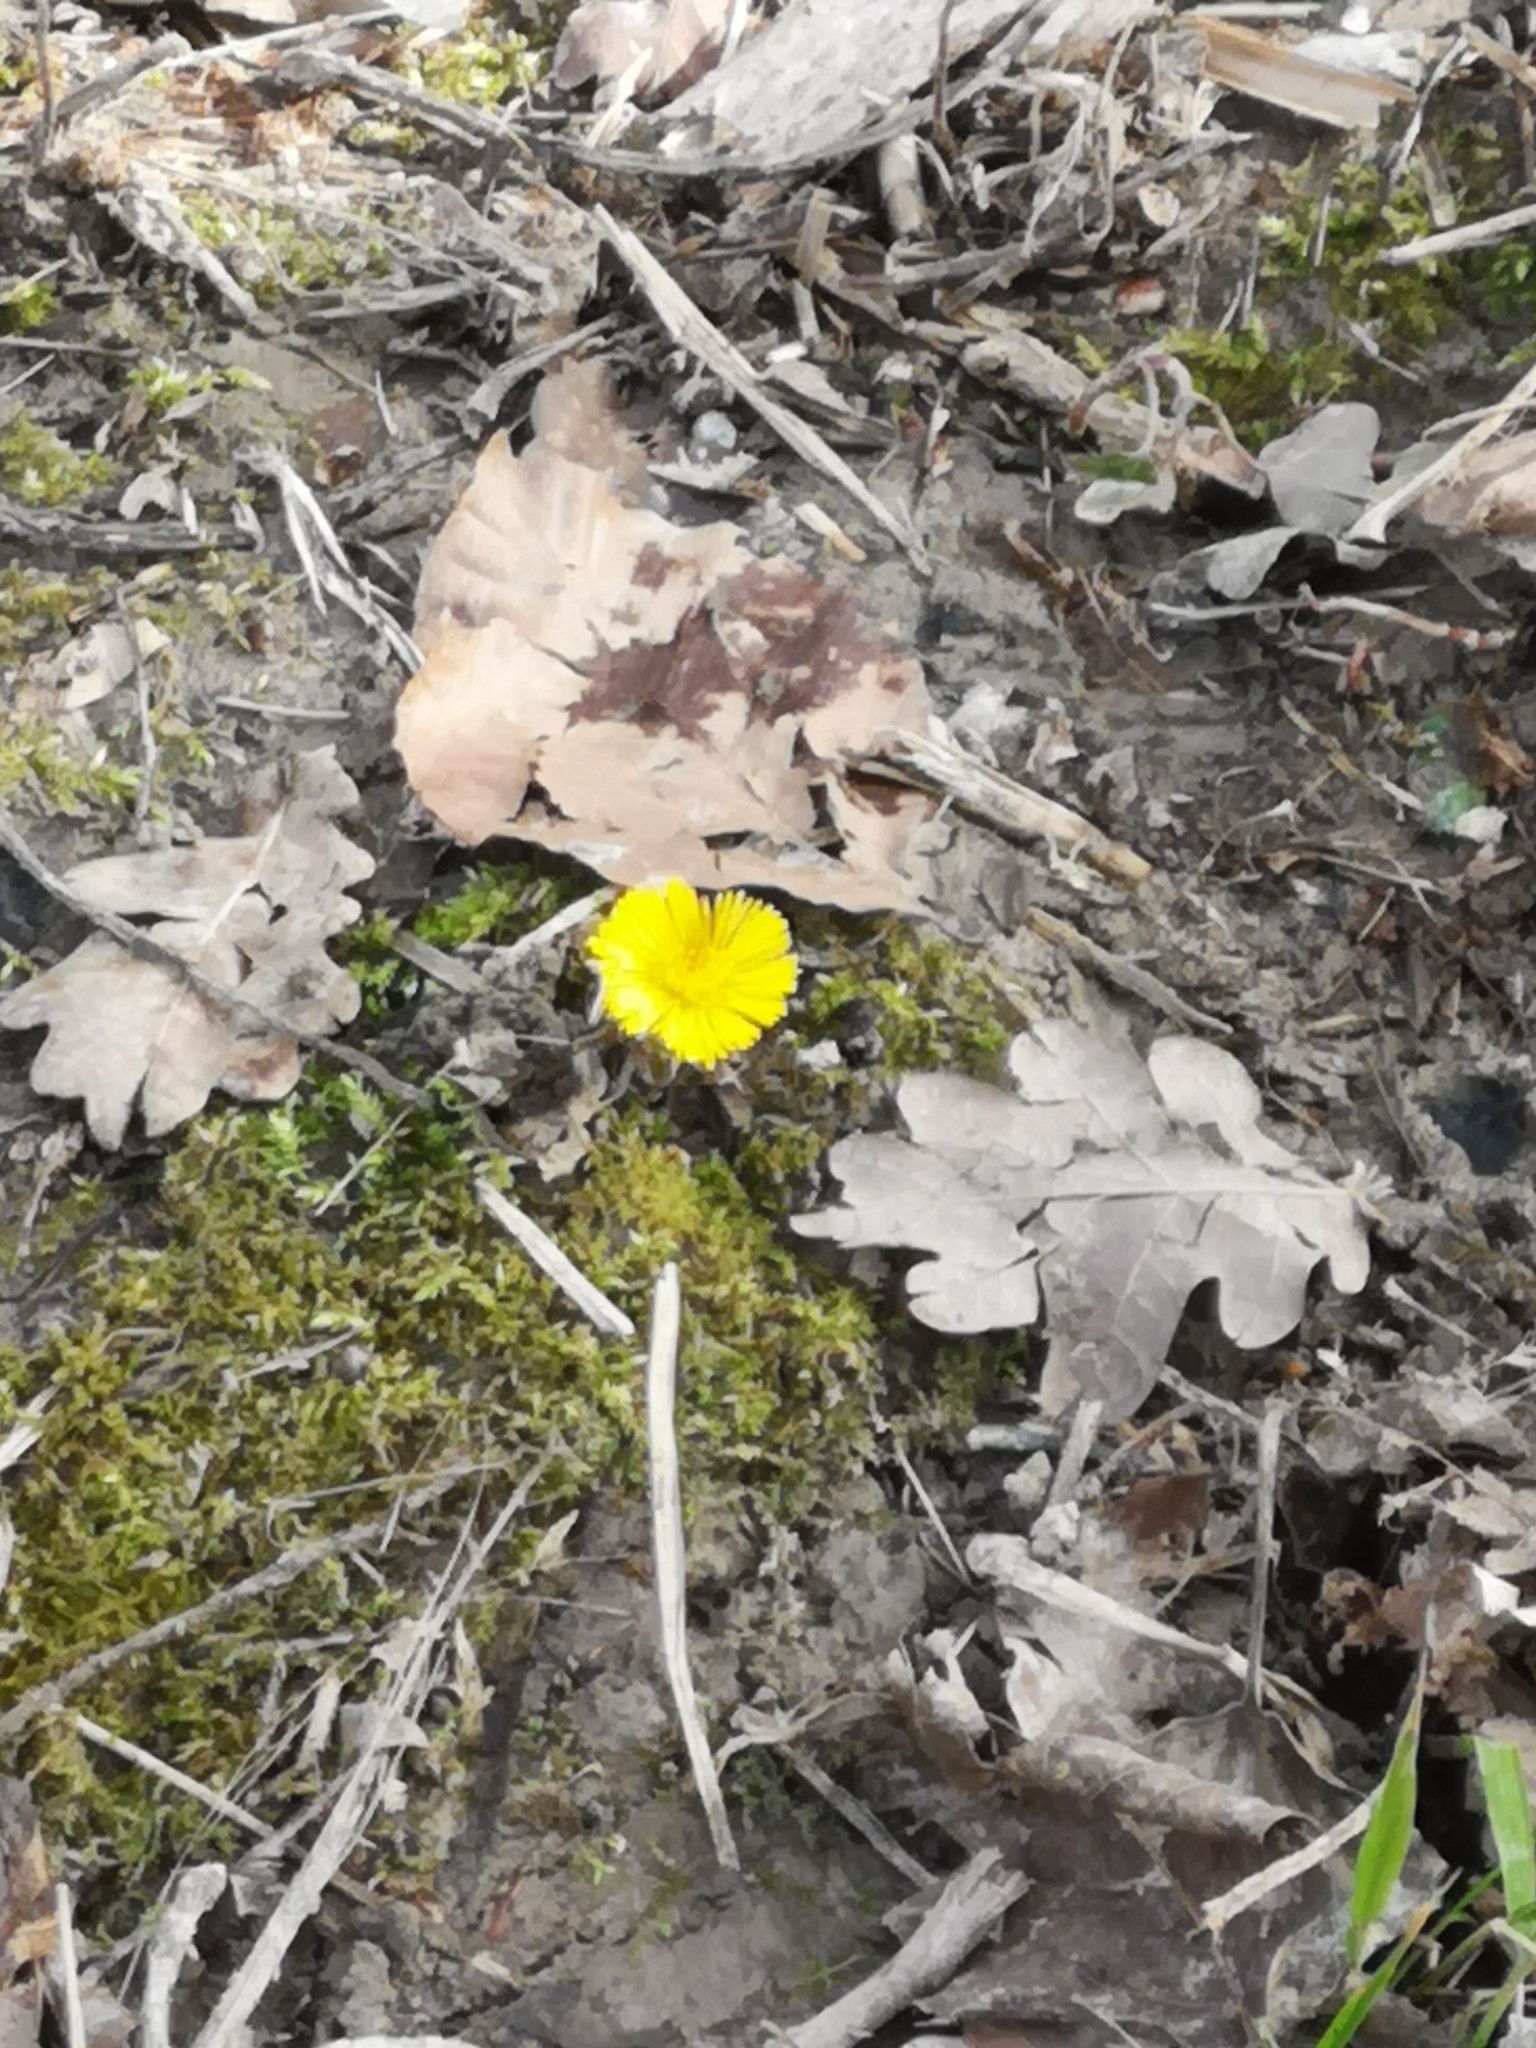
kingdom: Plantae
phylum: Tracheophyta
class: Magnoliopsida
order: Asterales
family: Asteraceae
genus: Tussilago
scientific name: Tussilago farfara
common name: Coltsfoot
